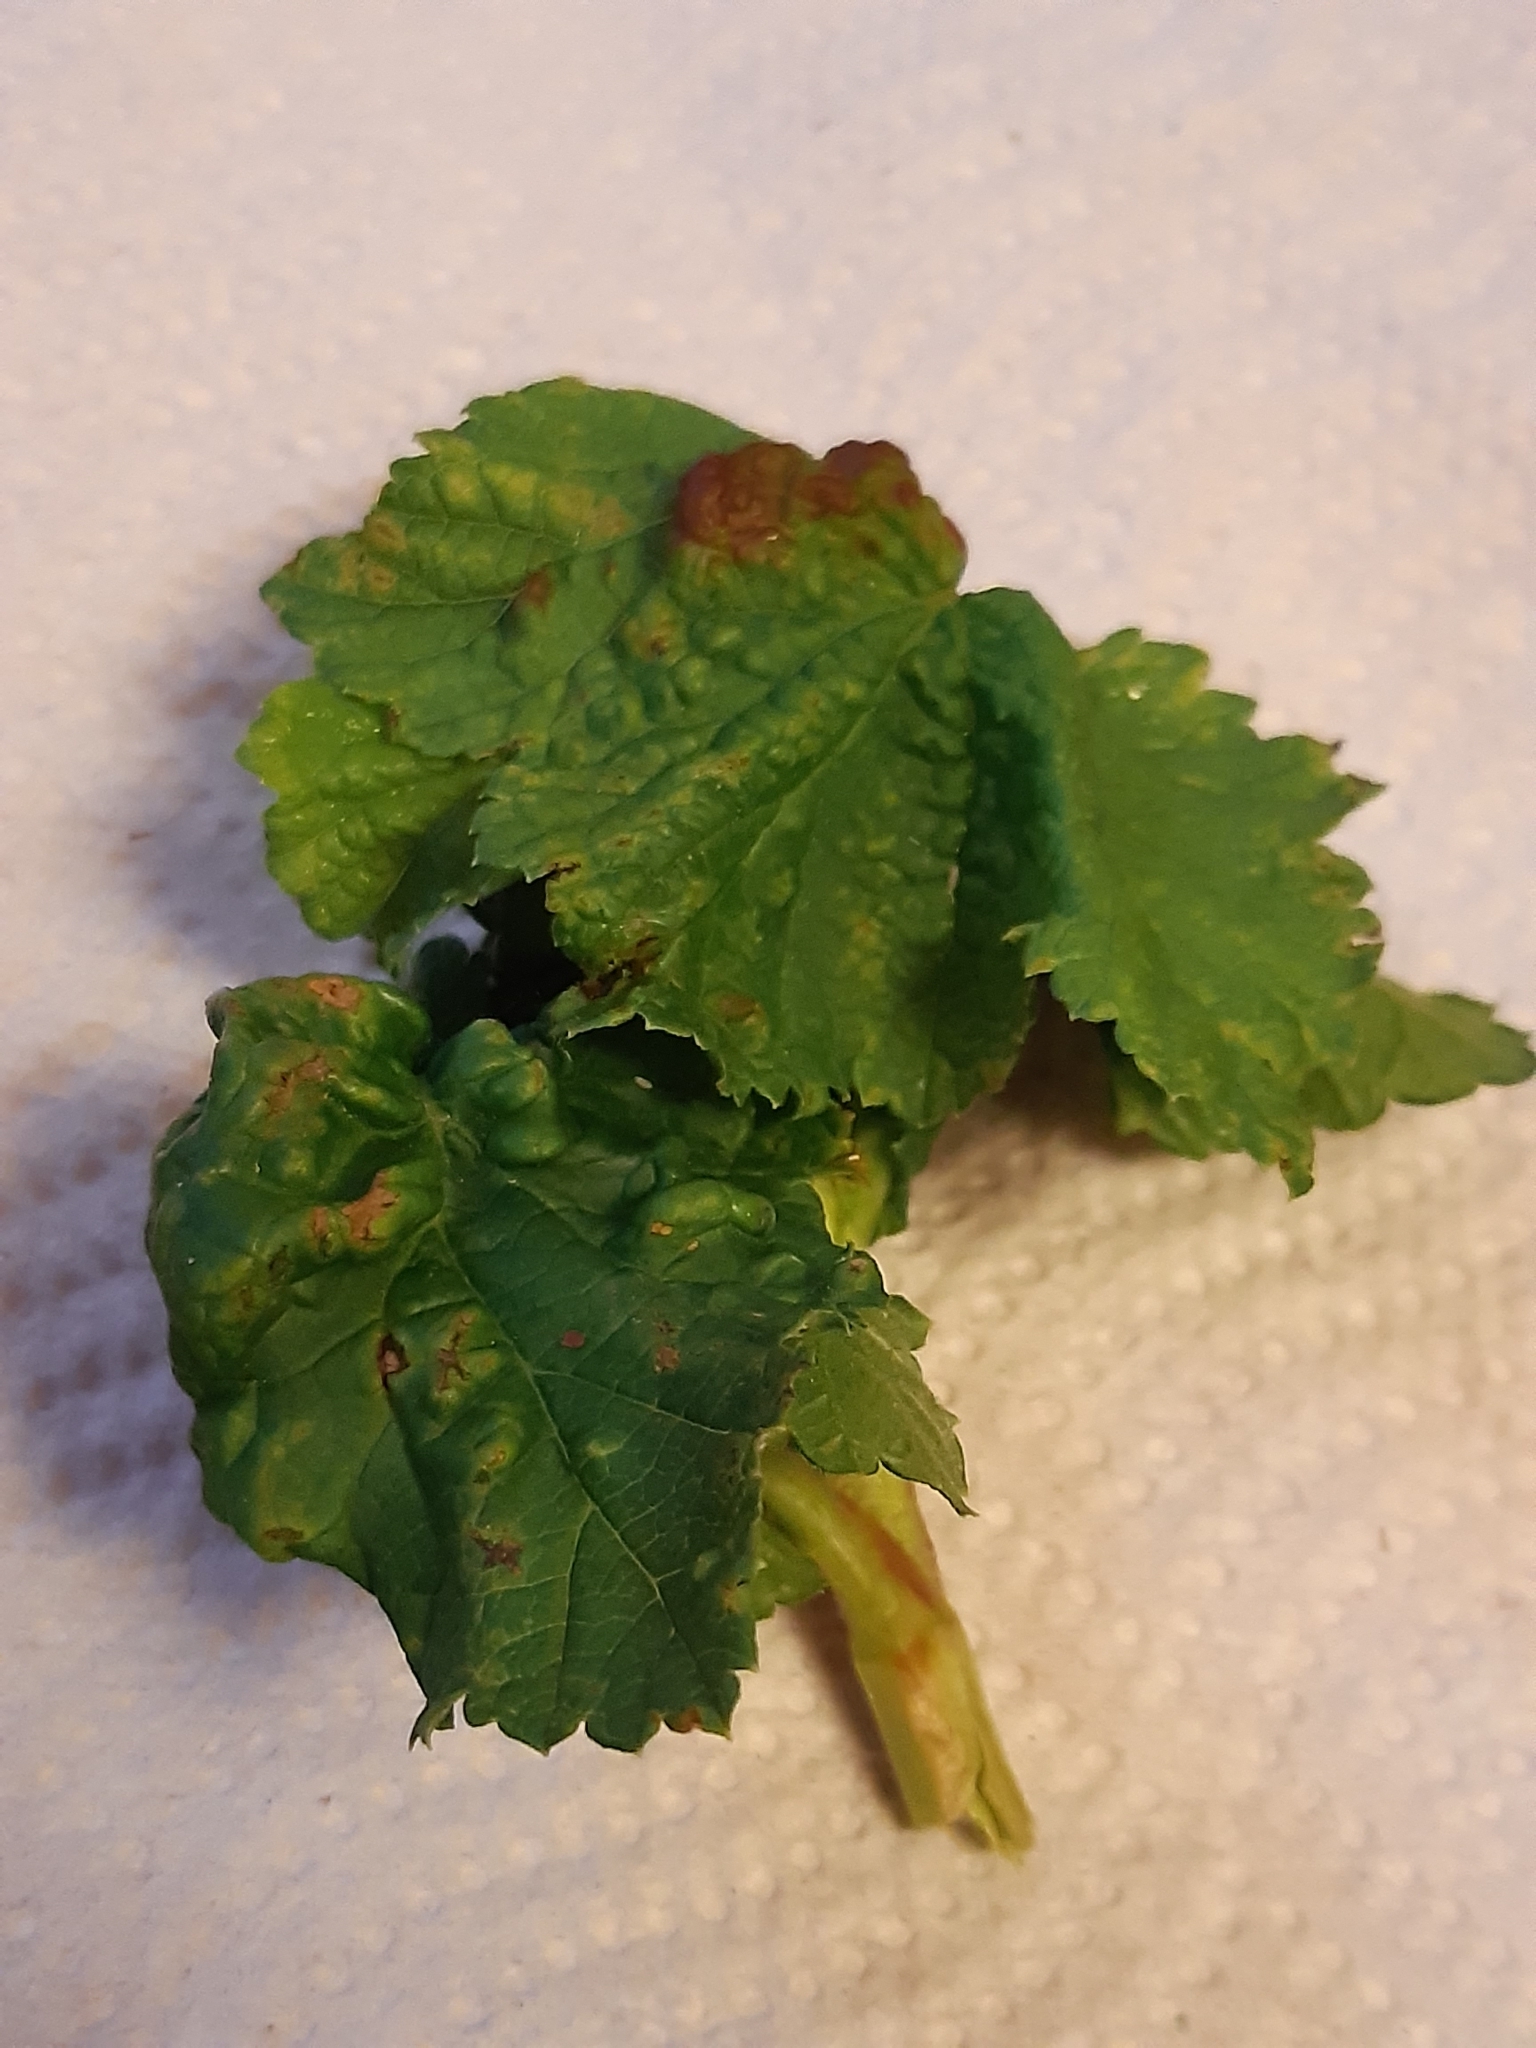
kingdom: Animalia
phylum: Arthropoda
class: Insecta
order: Hemiptera
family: Aphididae
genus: Cryptomyzus
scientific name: Cryptomyzus ribis
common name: Currant aphid
